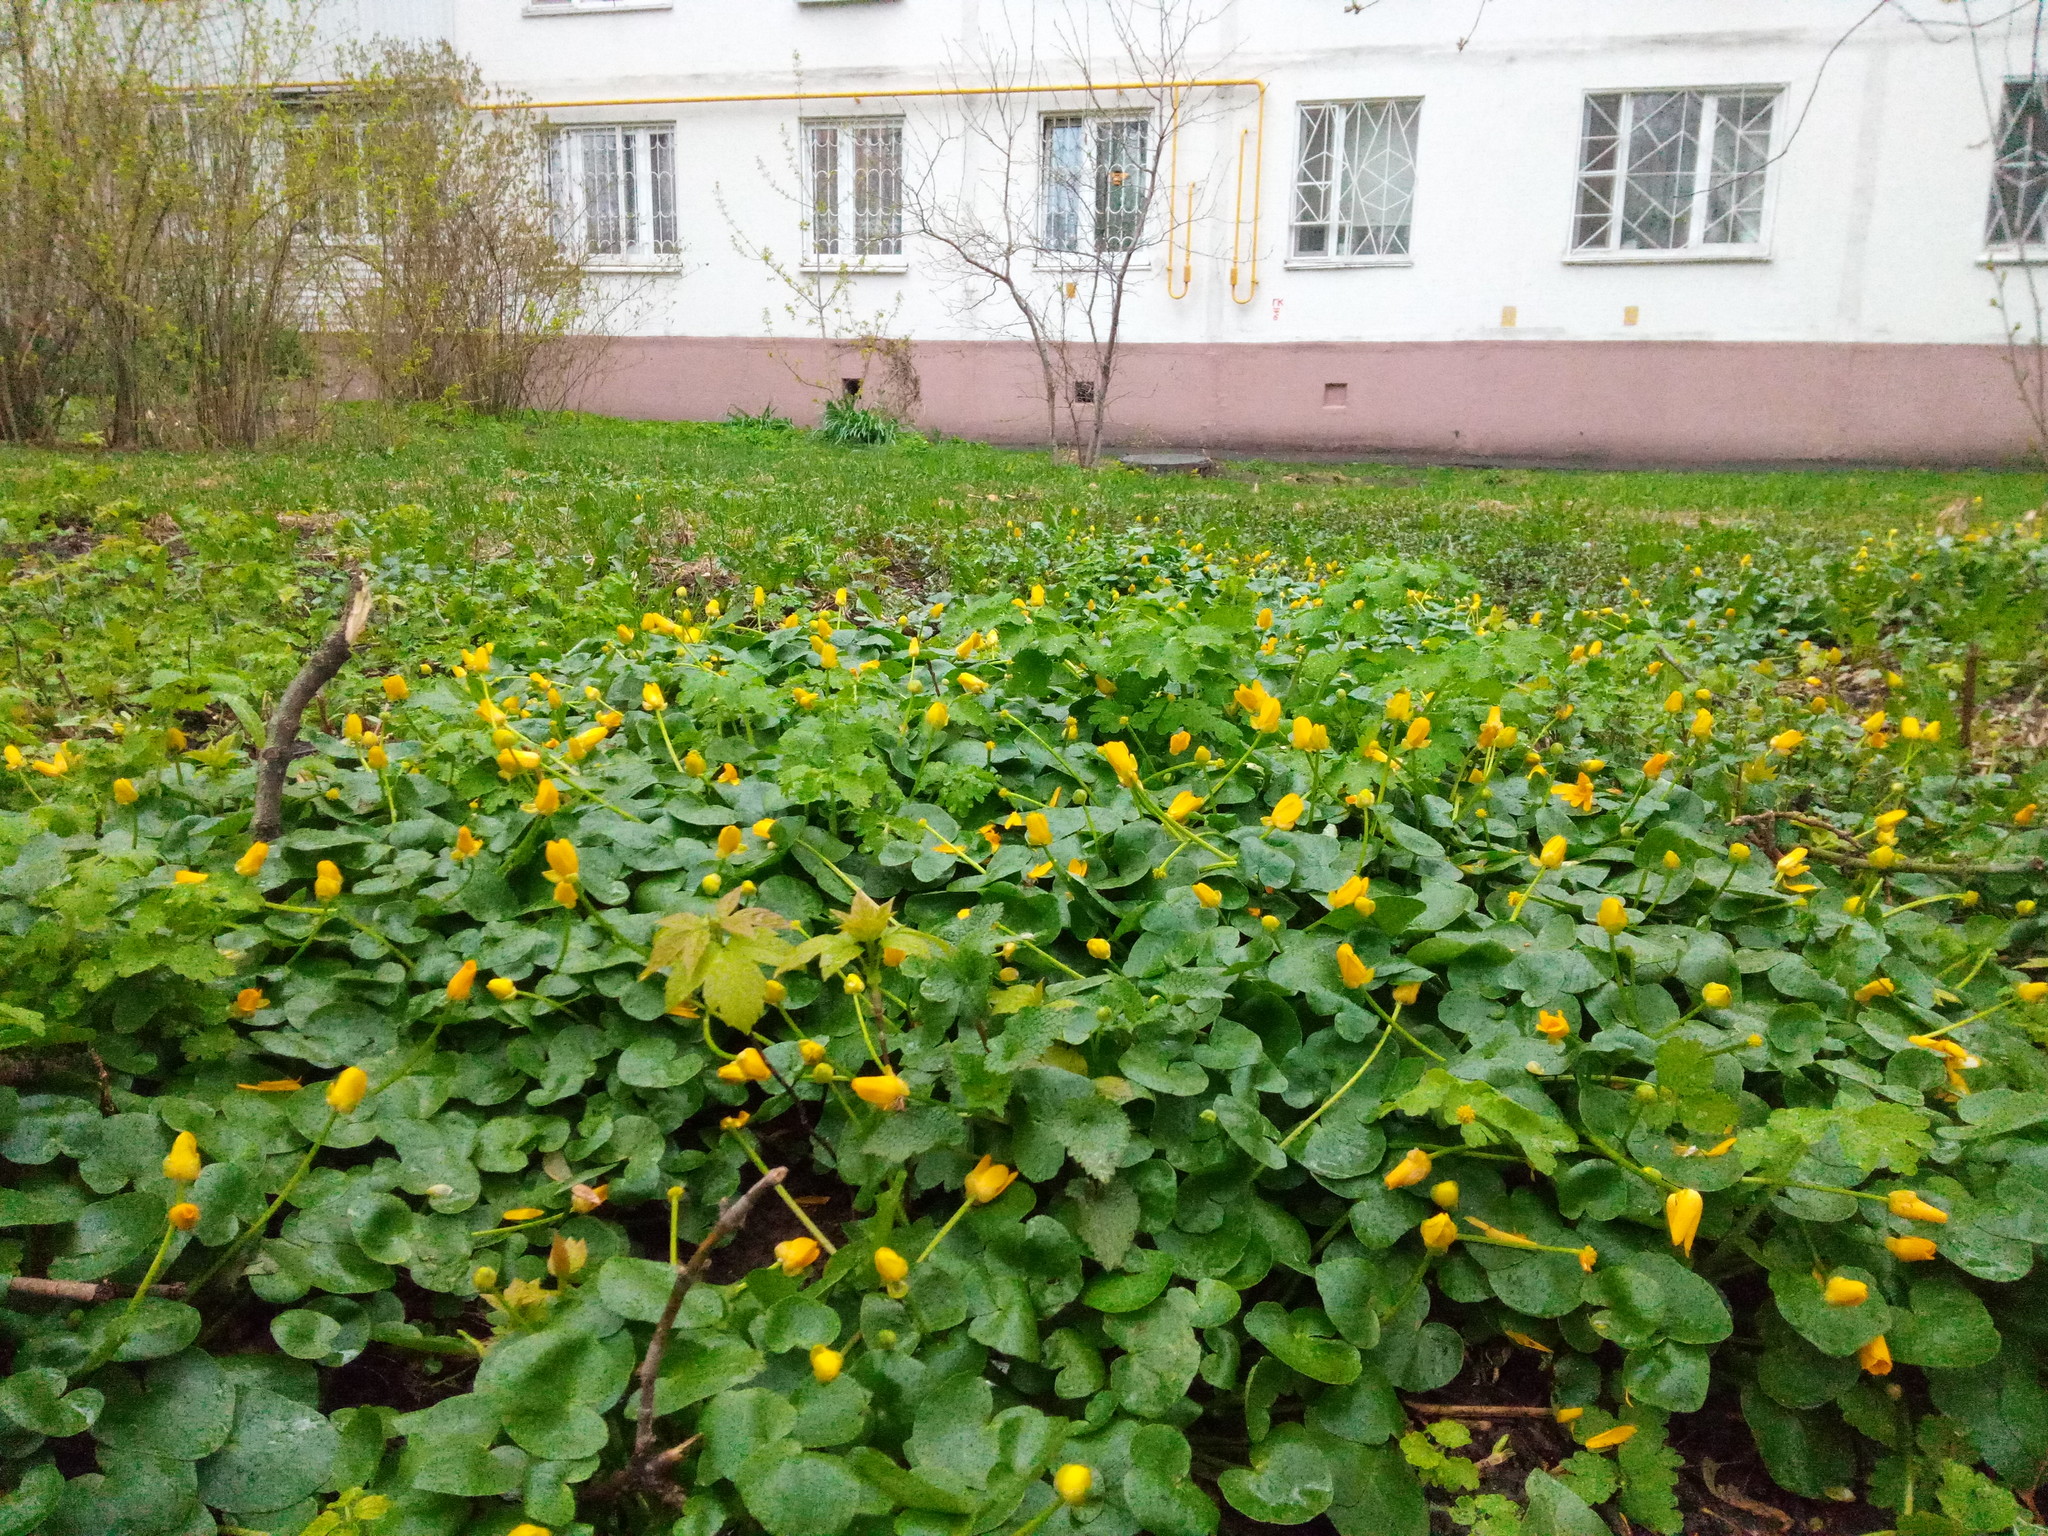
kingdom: Plantae
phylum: Tracheophyta
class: Magnoliopsida
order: Ranunculales
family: Ranunculaceae
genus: Ficaria
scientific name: Ficaria verna
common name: Lesser celandine
